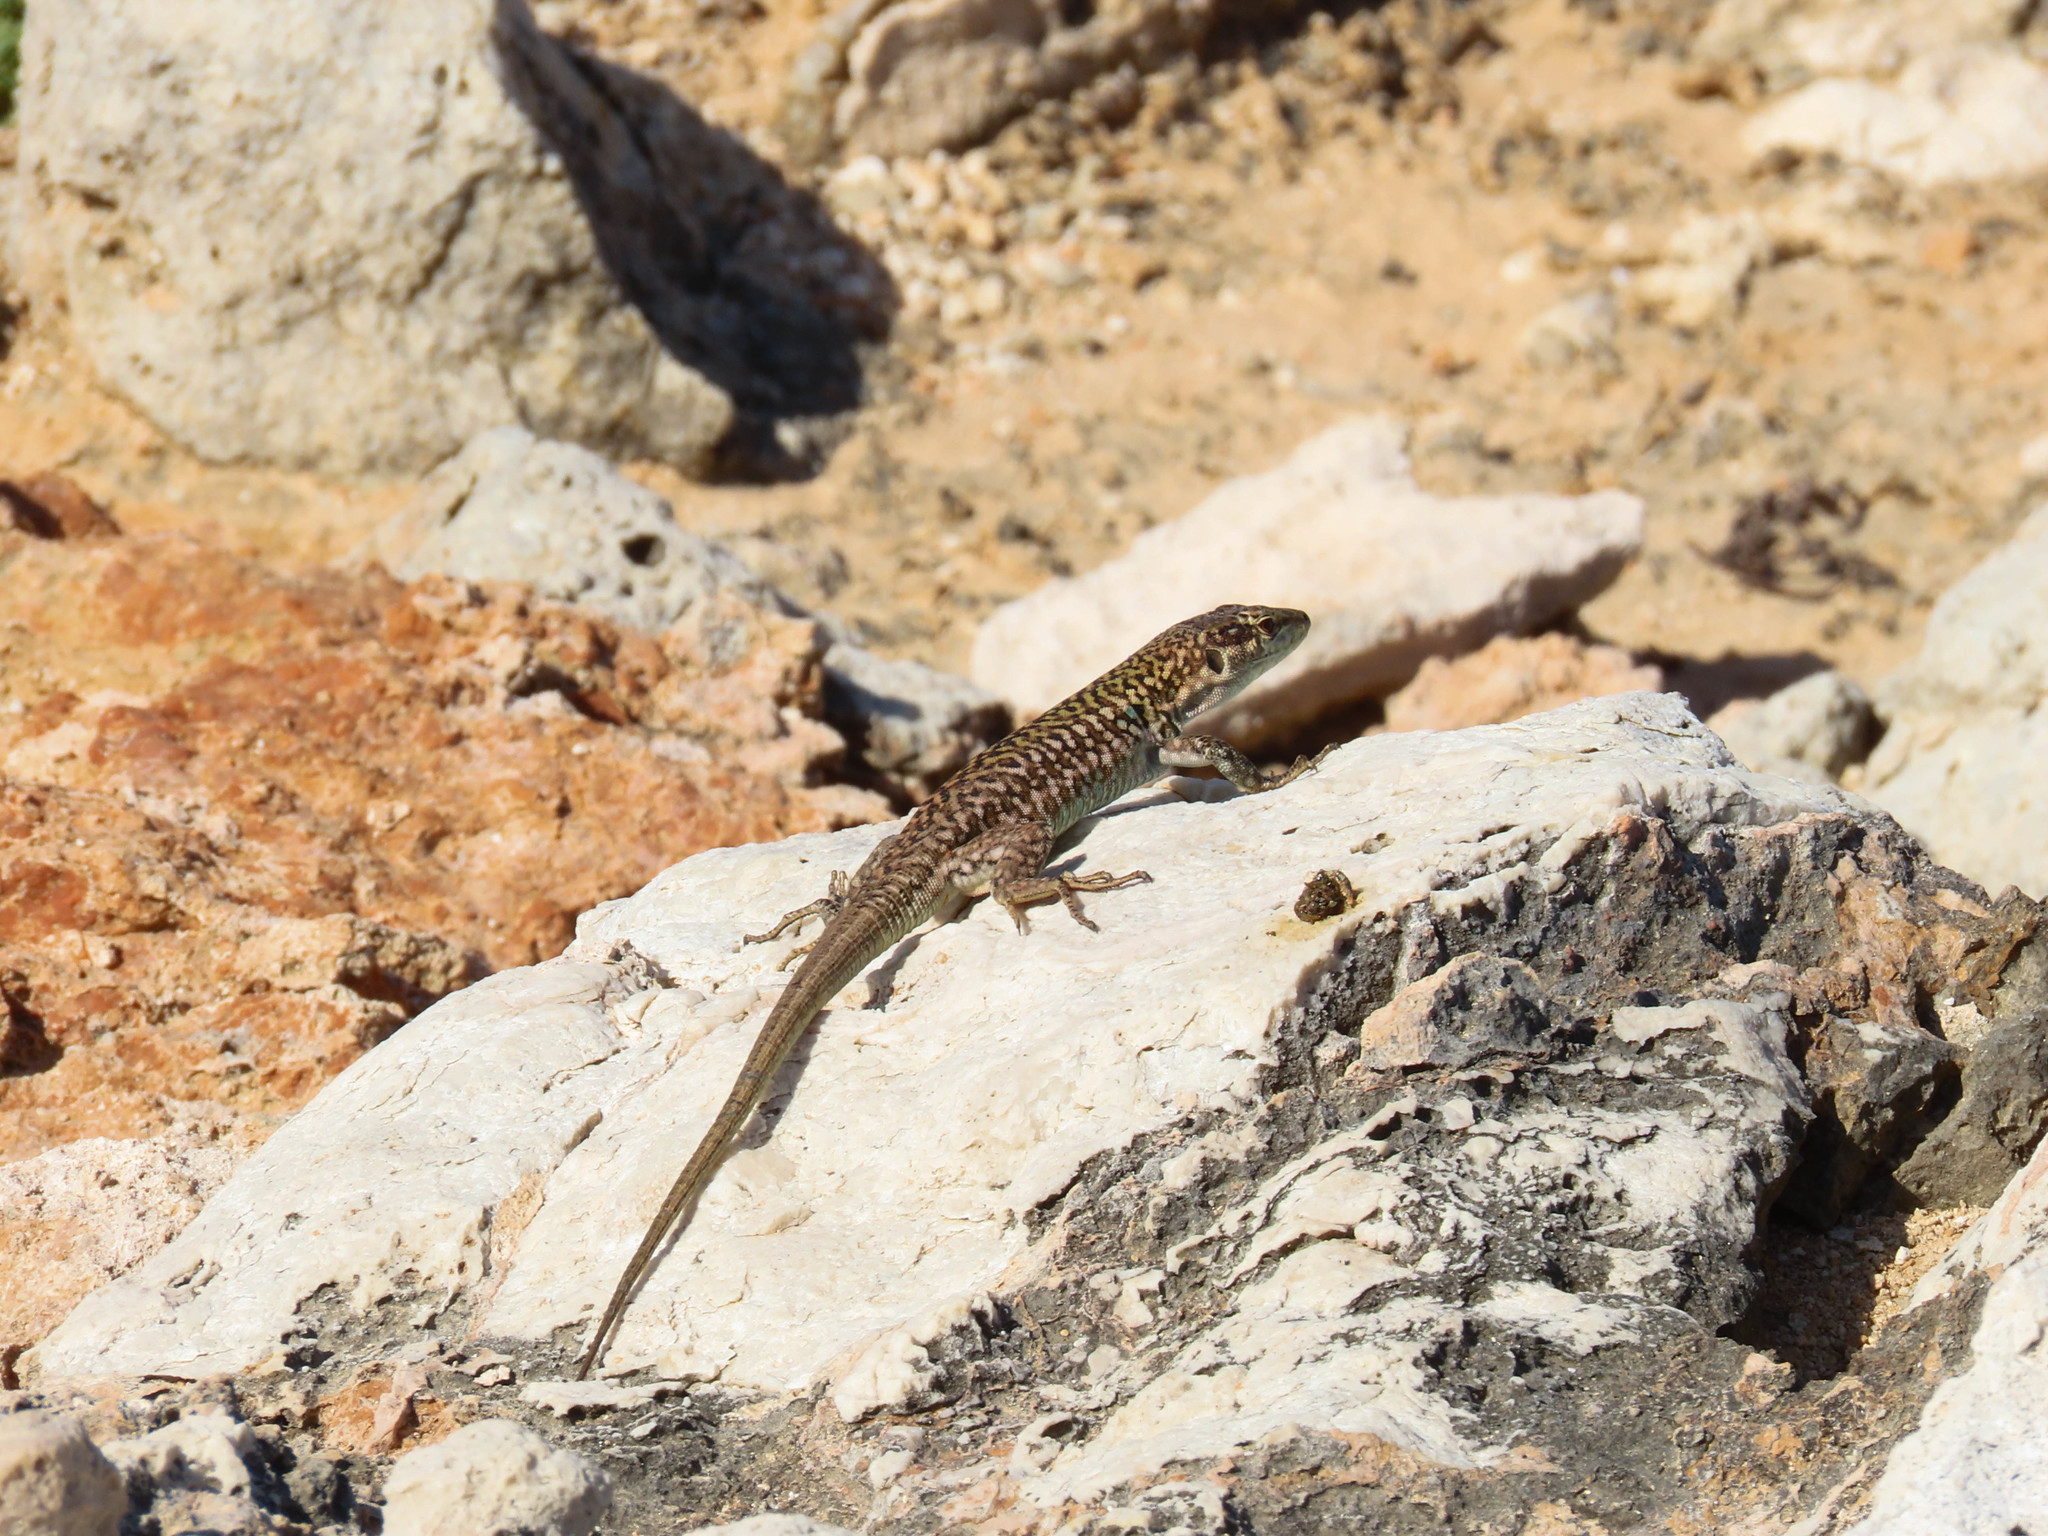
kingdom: Animalia
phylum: Chordata
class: Squamata
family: Lacertidae
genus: Podarcis
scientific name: Podarcis siculus
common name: Italian wall lizard
